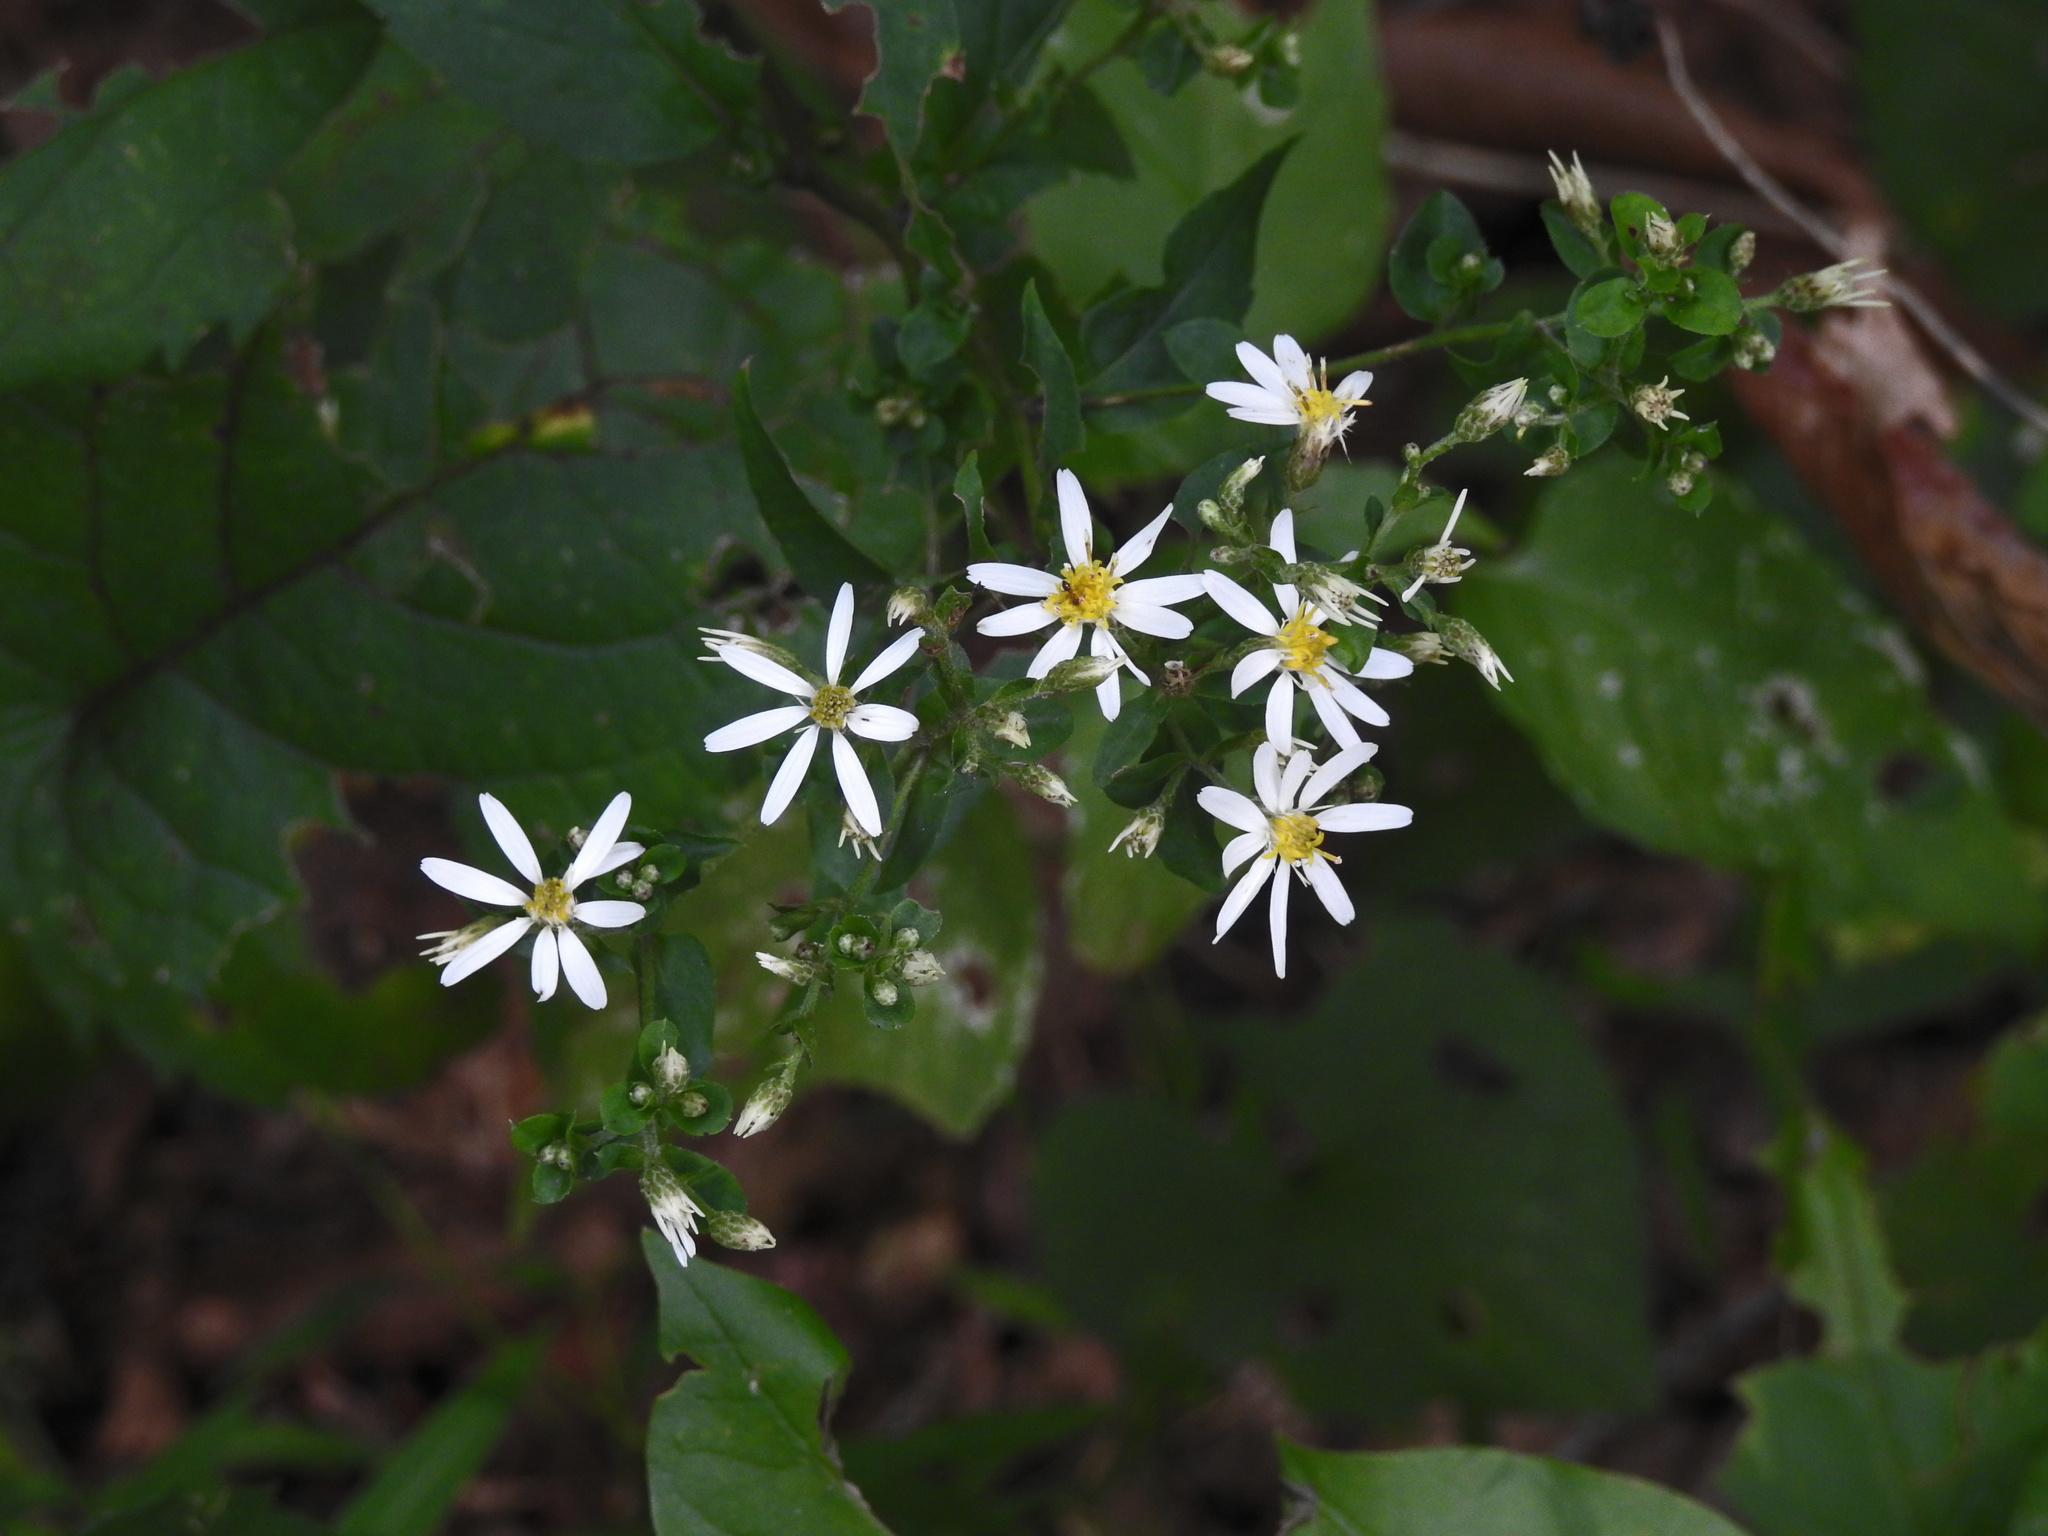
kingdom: Plantae
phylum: Tracheophyta
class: Magnoliopsida
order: Asterales
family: Asteraceae
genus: Eurybia
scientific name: Eurybia divaricata
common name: White wood aster
